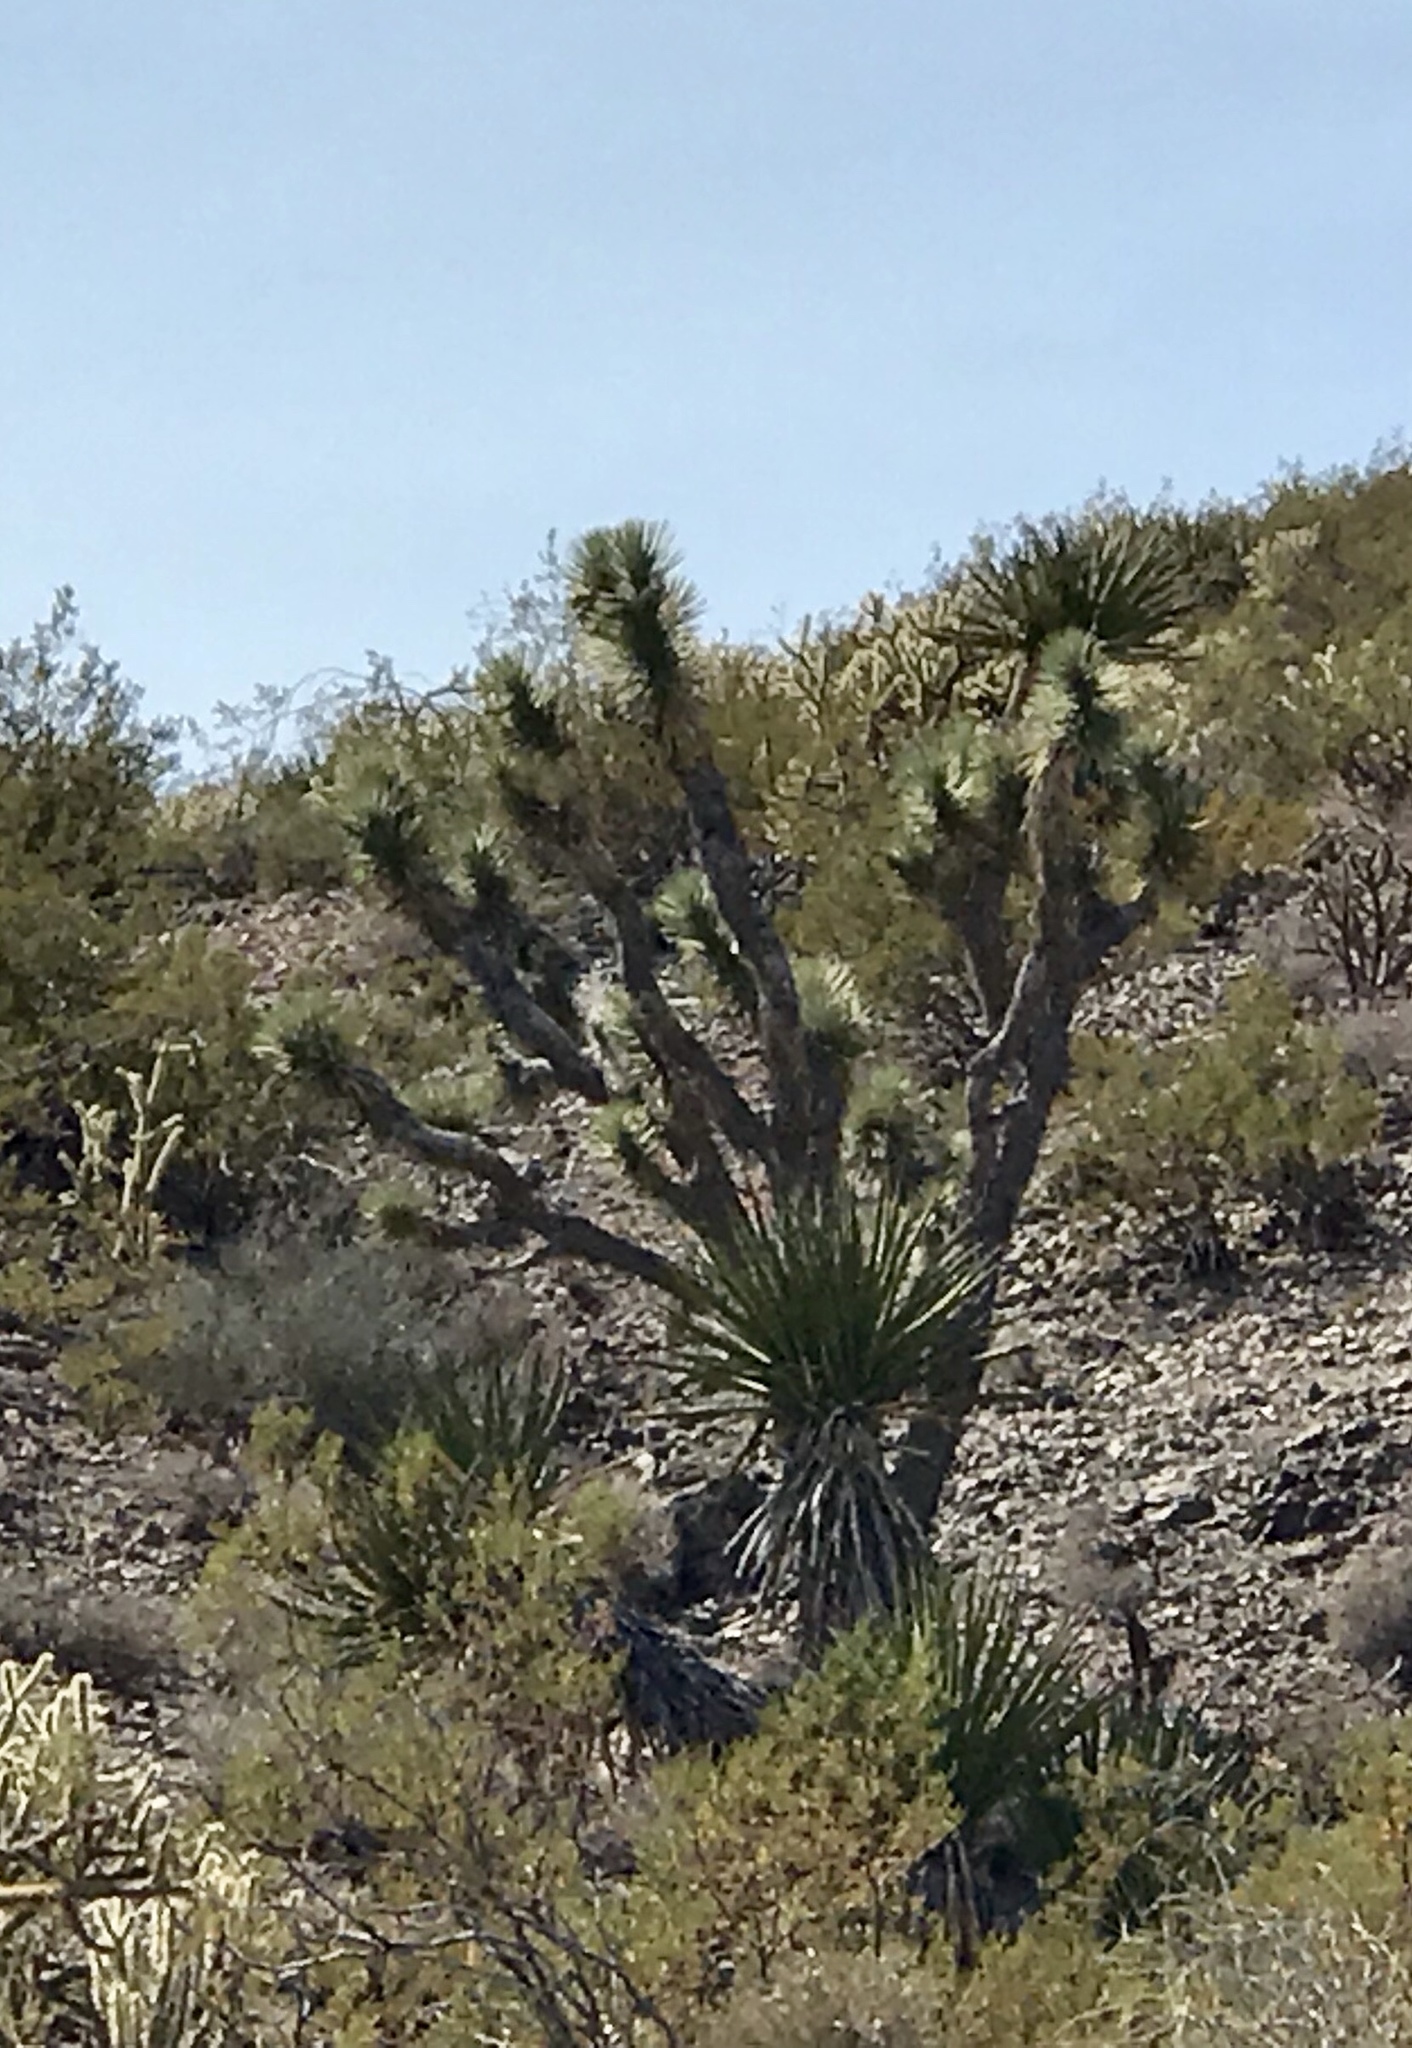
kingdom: Plantae
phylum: Tracheophyta
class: Liliopsida
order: Asparagales
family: Asparagaceae
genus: Yucca
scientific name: Yucca brevifolia
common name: Joshua tree
